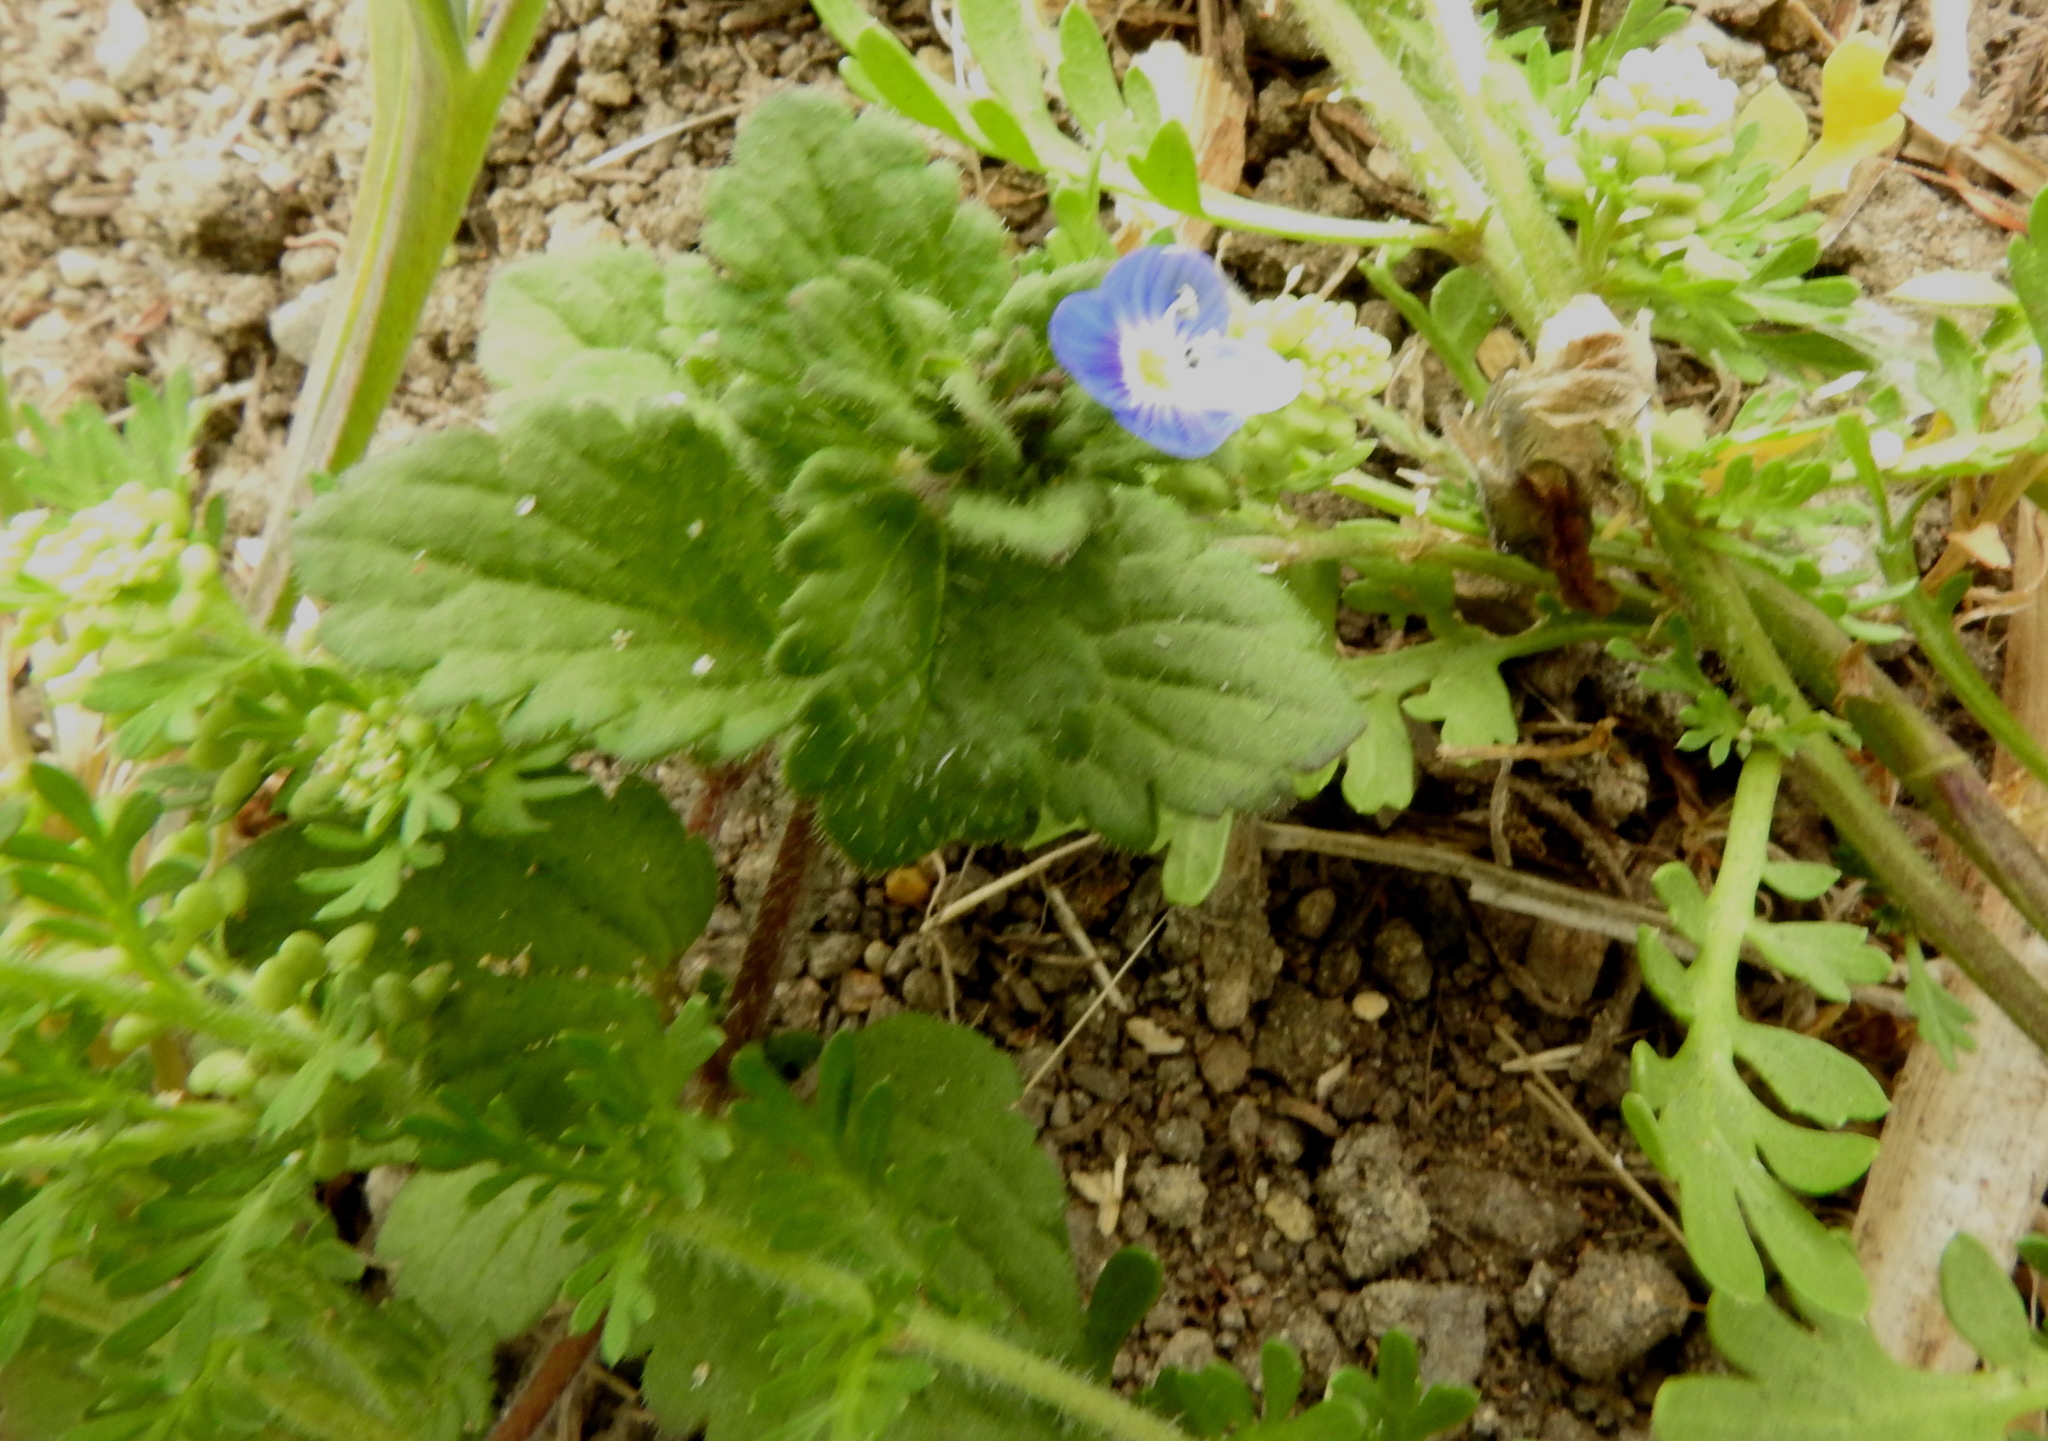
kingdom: Plantae
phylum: Tracheophyta
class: Magnoliopsida
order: Lamiales
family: Plantaginaceae
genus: Veronica
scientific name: Veronica persica
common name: Common field-speedwell
